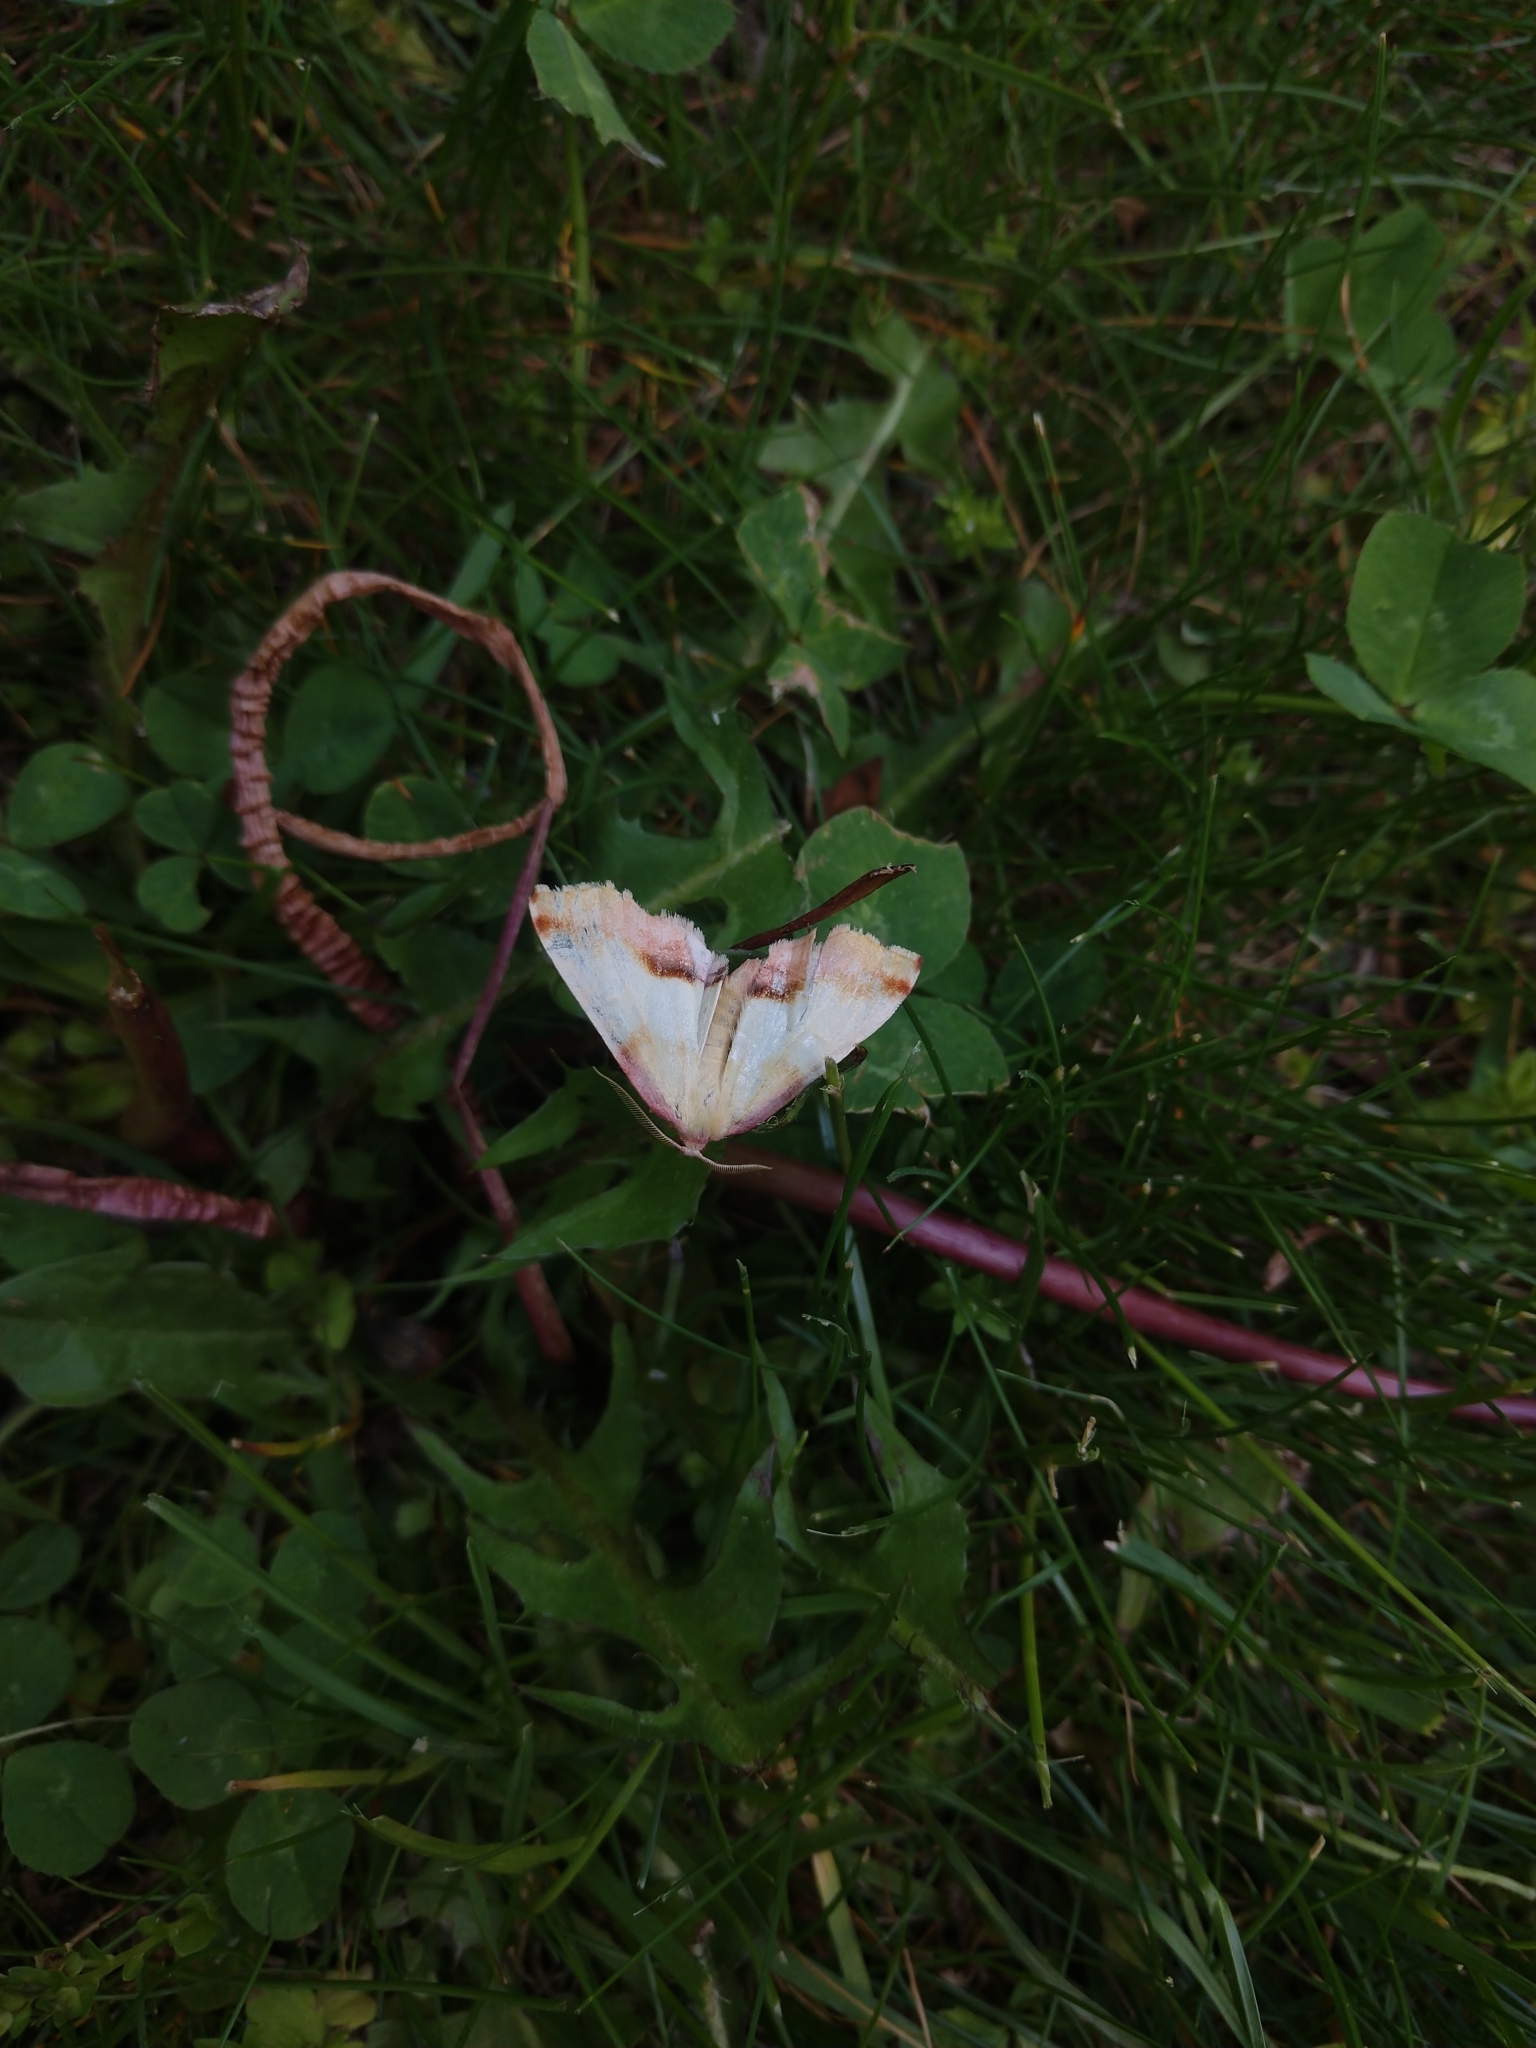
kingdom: Animalia
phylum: Arthropoda
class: Insecta
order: Lepidoptera
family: Geometridae
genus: Plagodis
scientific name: Plagodis serinaria
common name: Lemon plagodis
